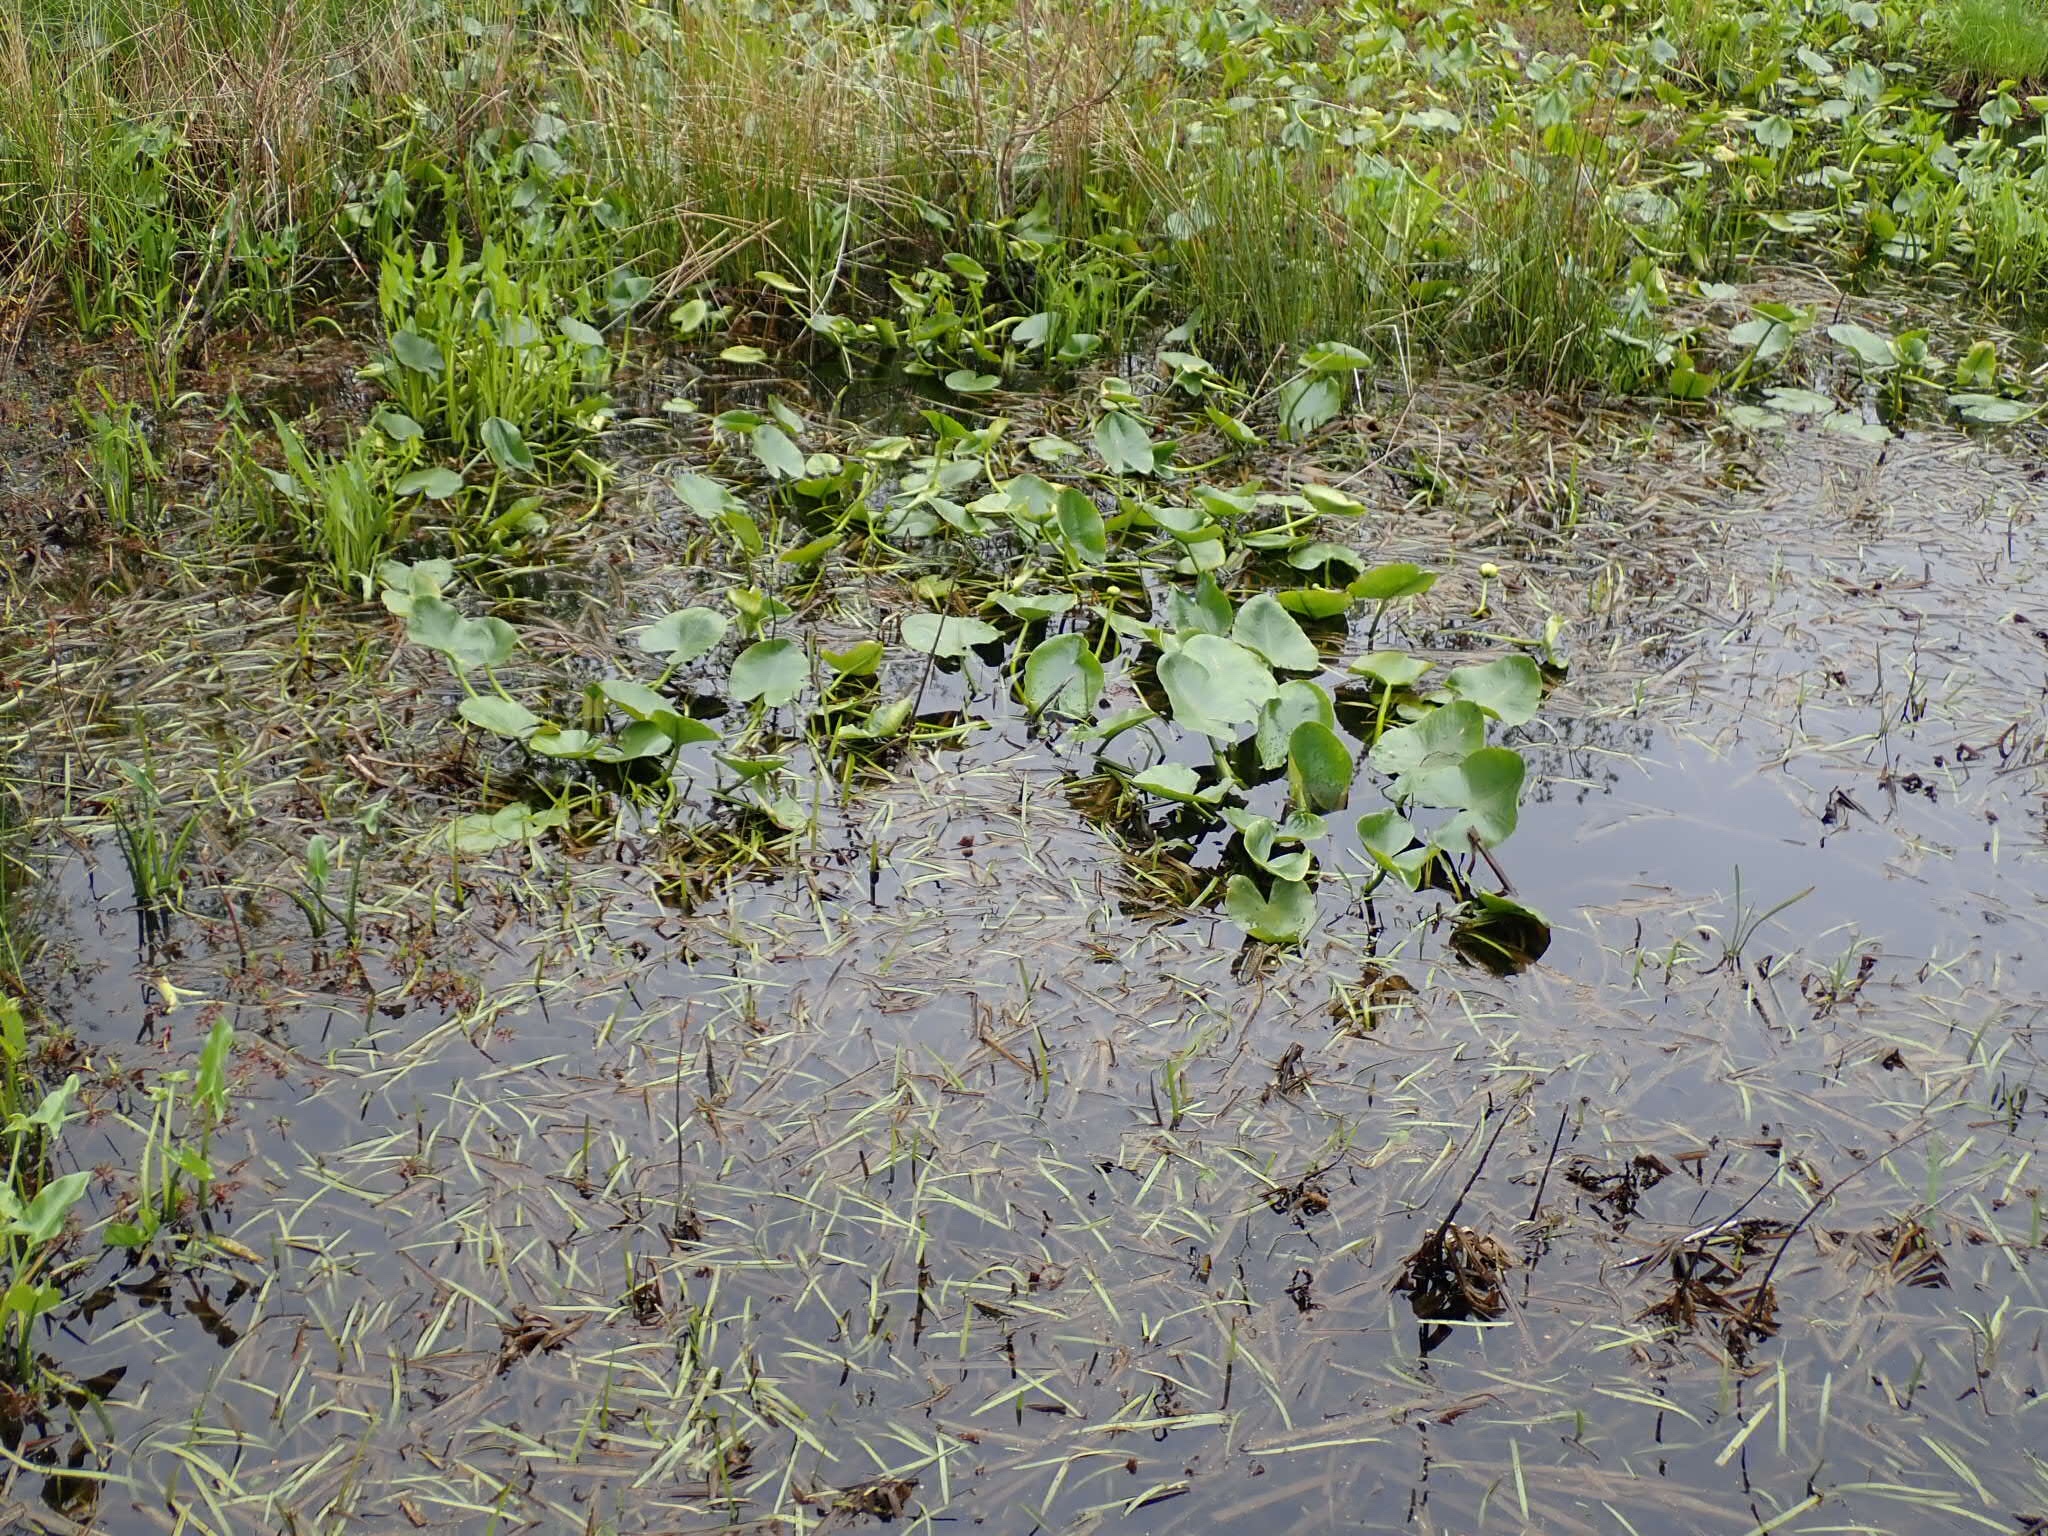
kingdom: Plantae
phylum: Tracheophyta
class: Magnoliopsida
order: Nymphaeales
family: Nymphaeaceae
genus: Nuphar
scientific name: Nuphar advena
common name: Spatter-dock
